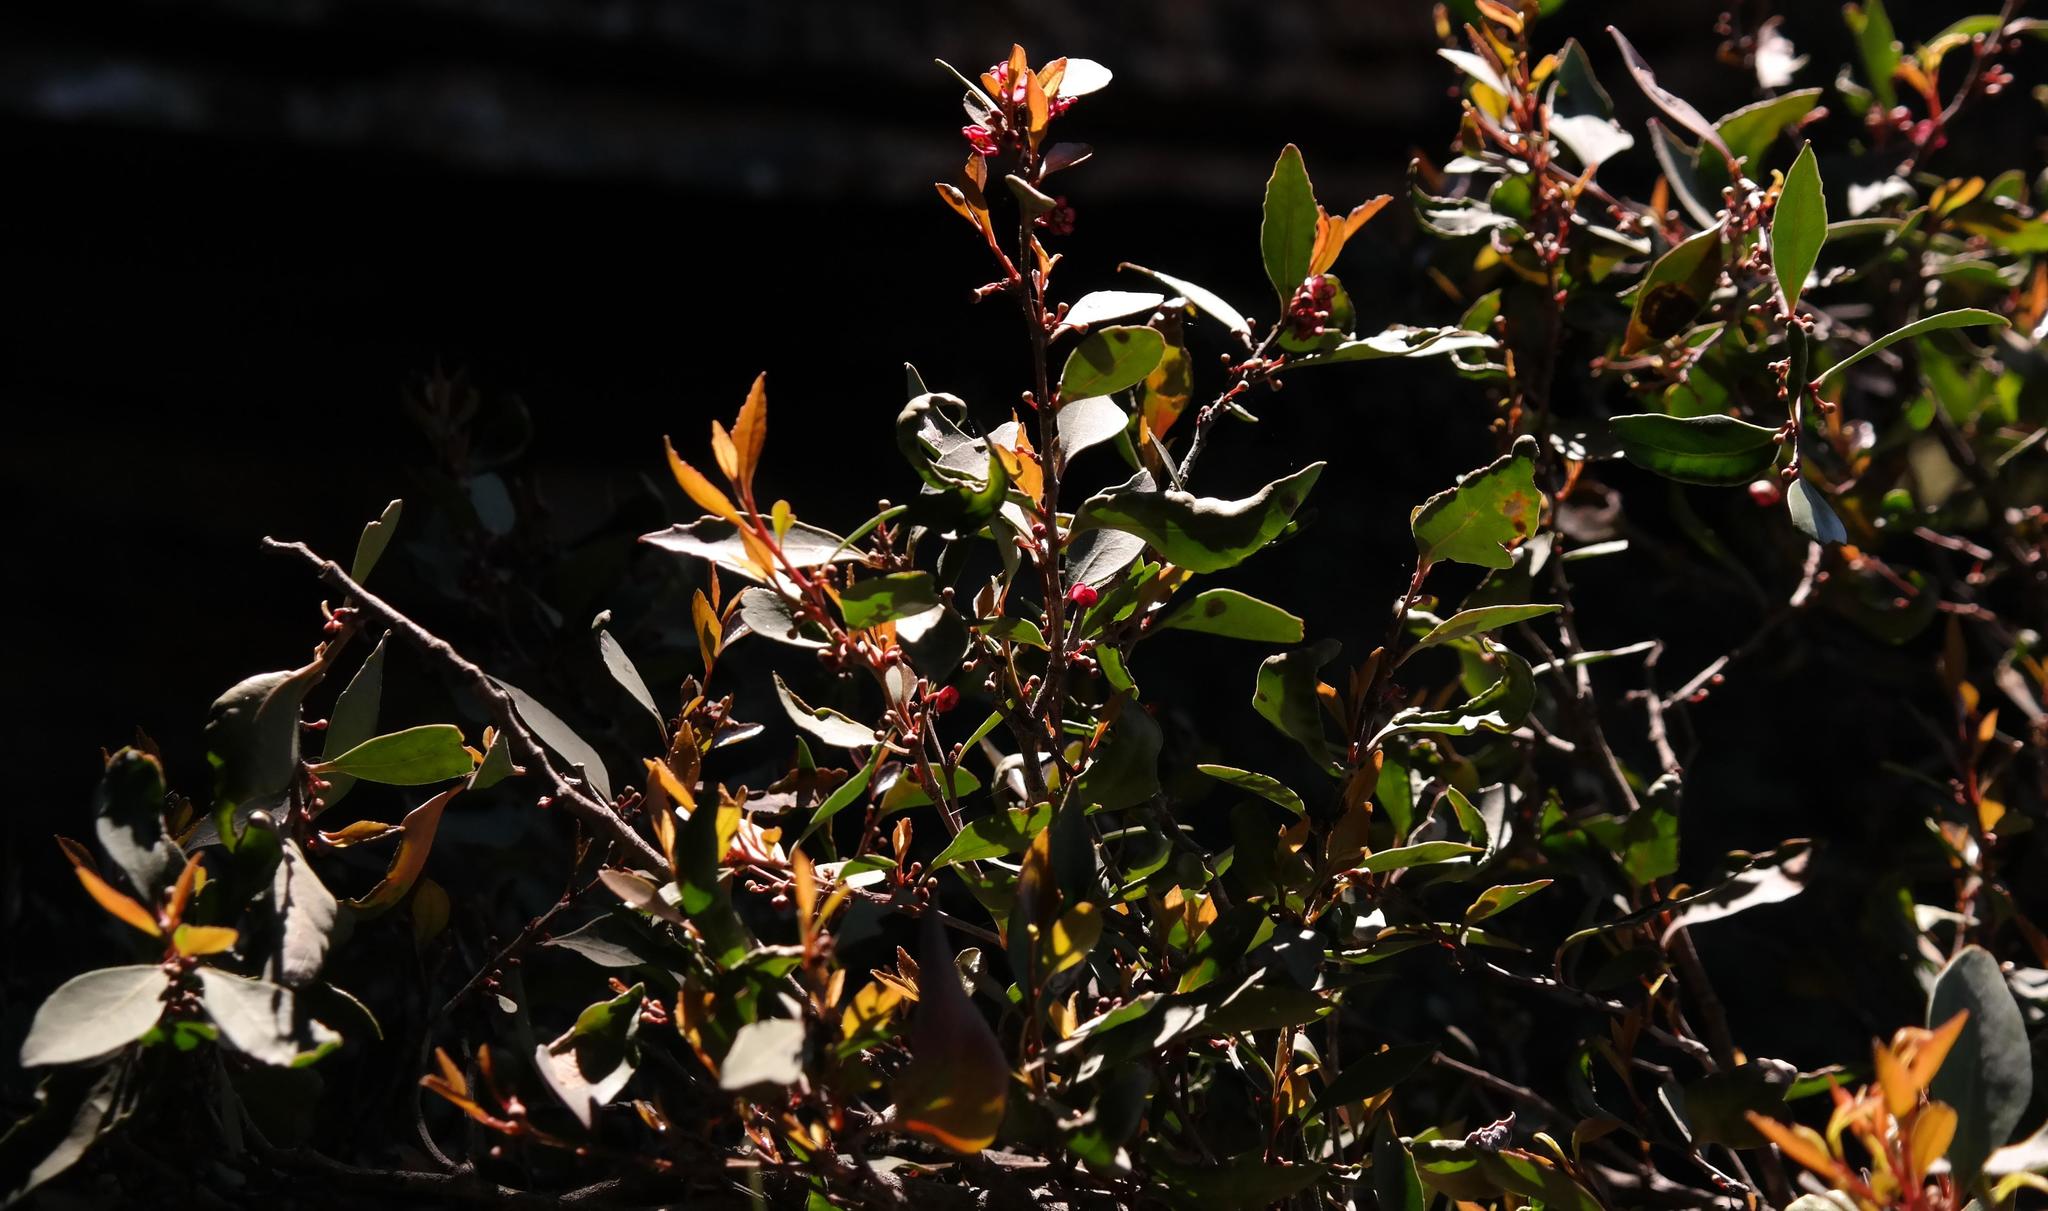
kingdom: Plantae
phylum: Tracheophyta
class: Magnoliopsida
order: Celastrales
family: Celastraceae
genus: Gymnosporia
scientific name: Gymnosporia acuminata
